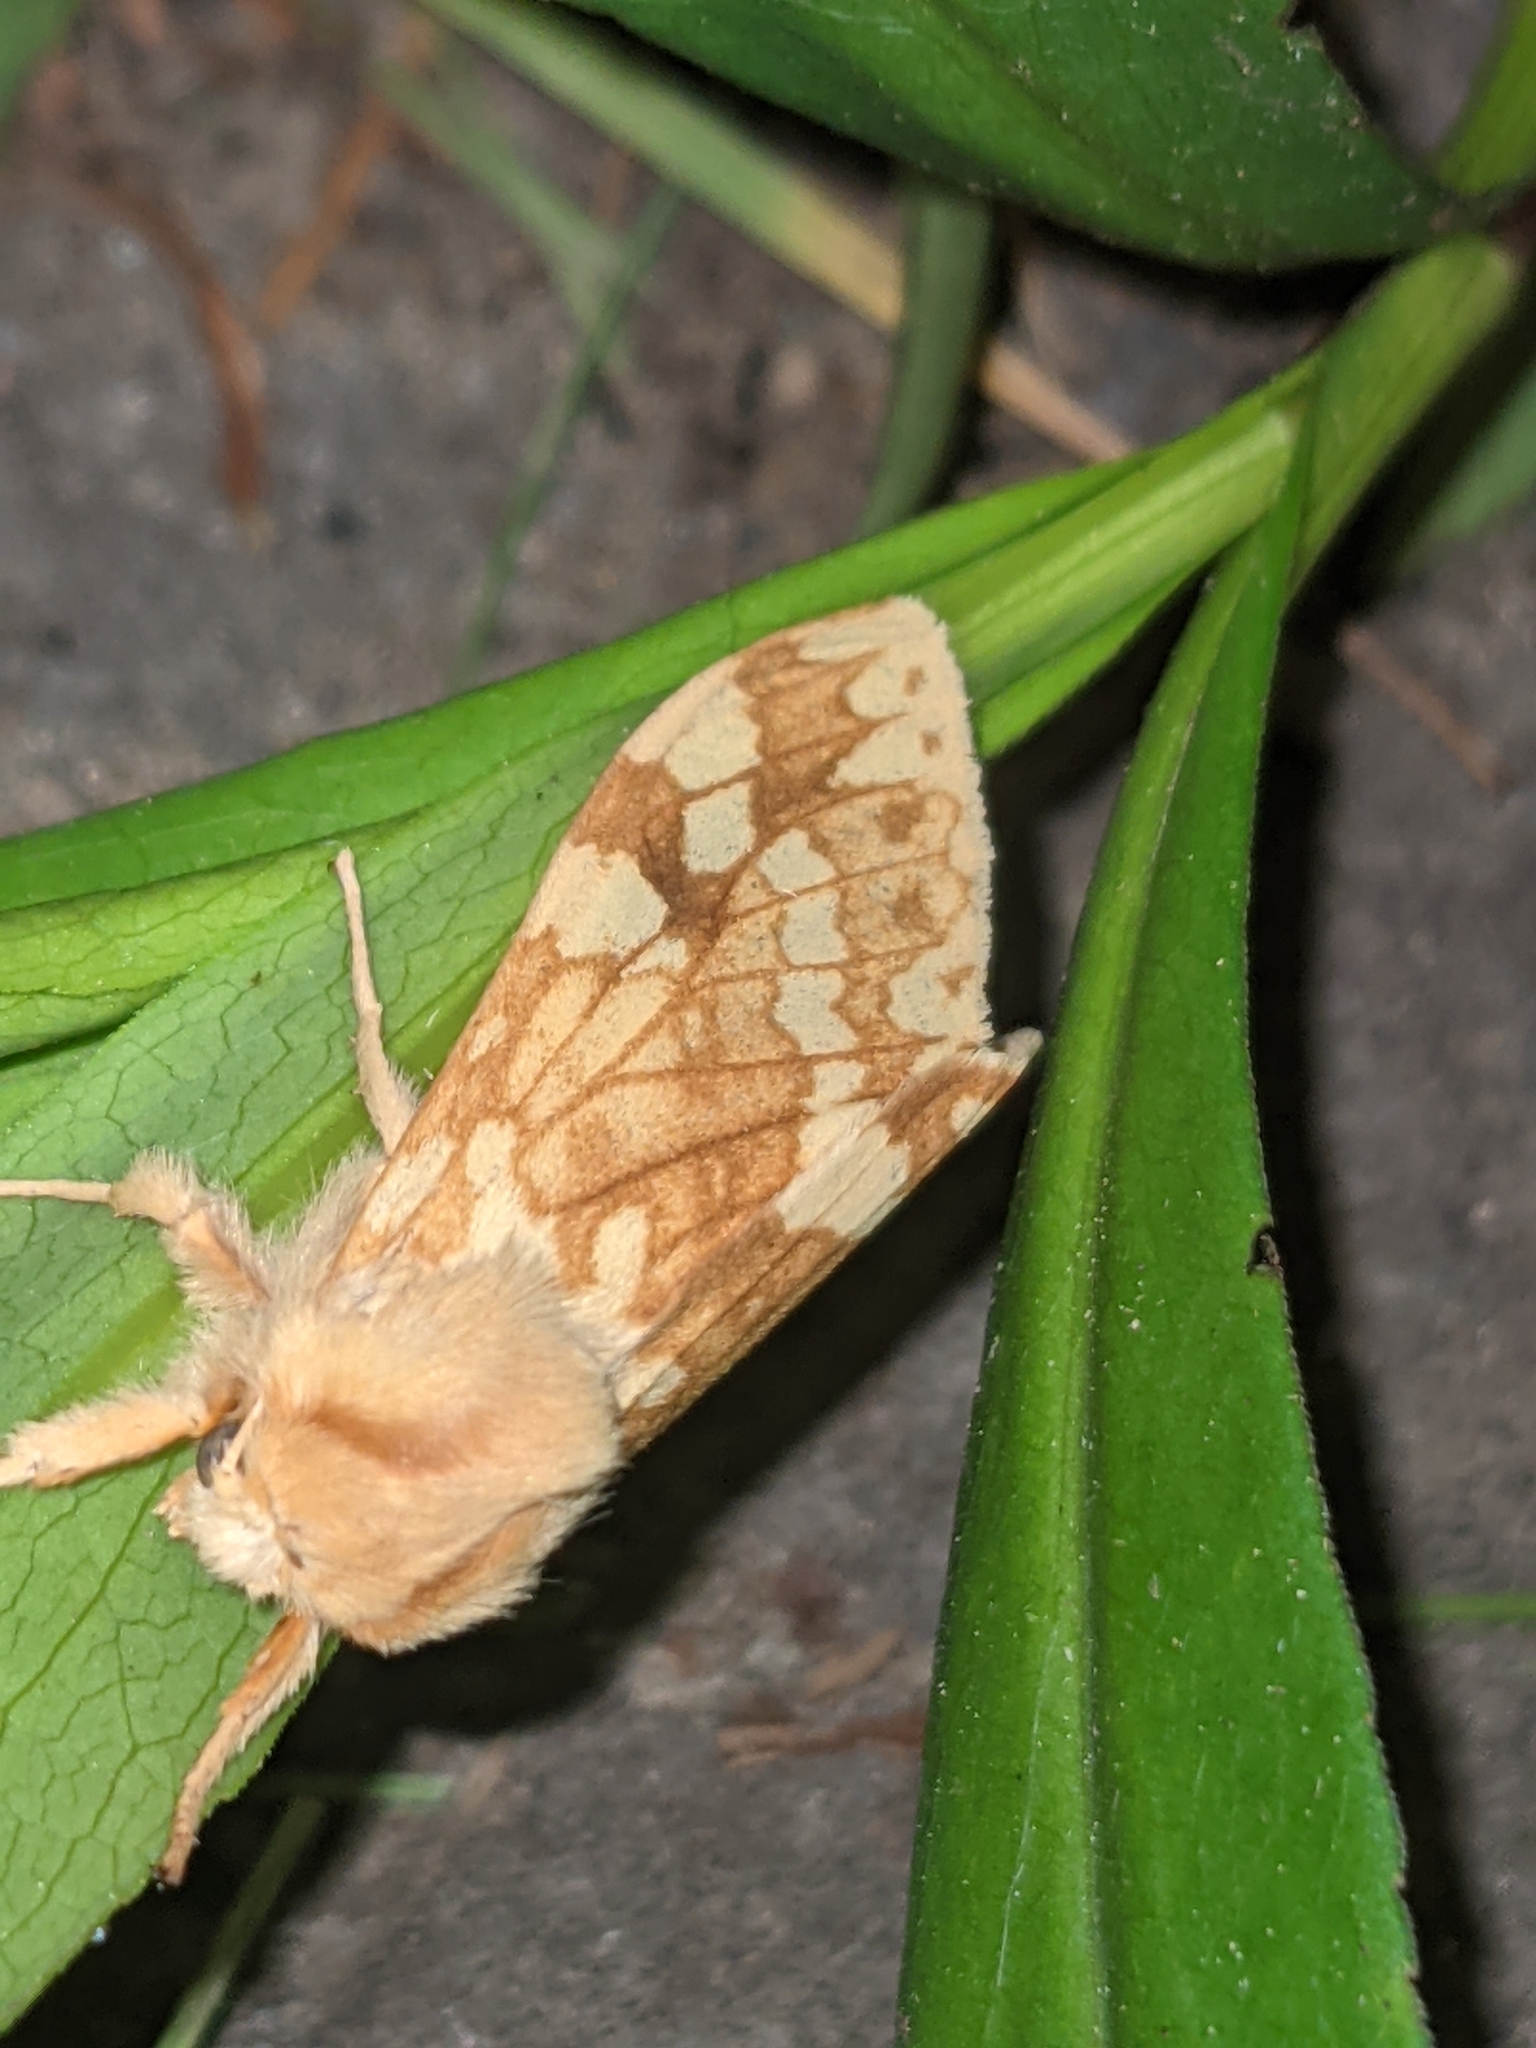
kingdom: Animalia
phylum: Arthropoda
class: Insecta
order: Lepidoptera
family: Erebidae
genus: Lophocampa
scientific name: Lophocampa maculata
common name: Spotted tussock moth
